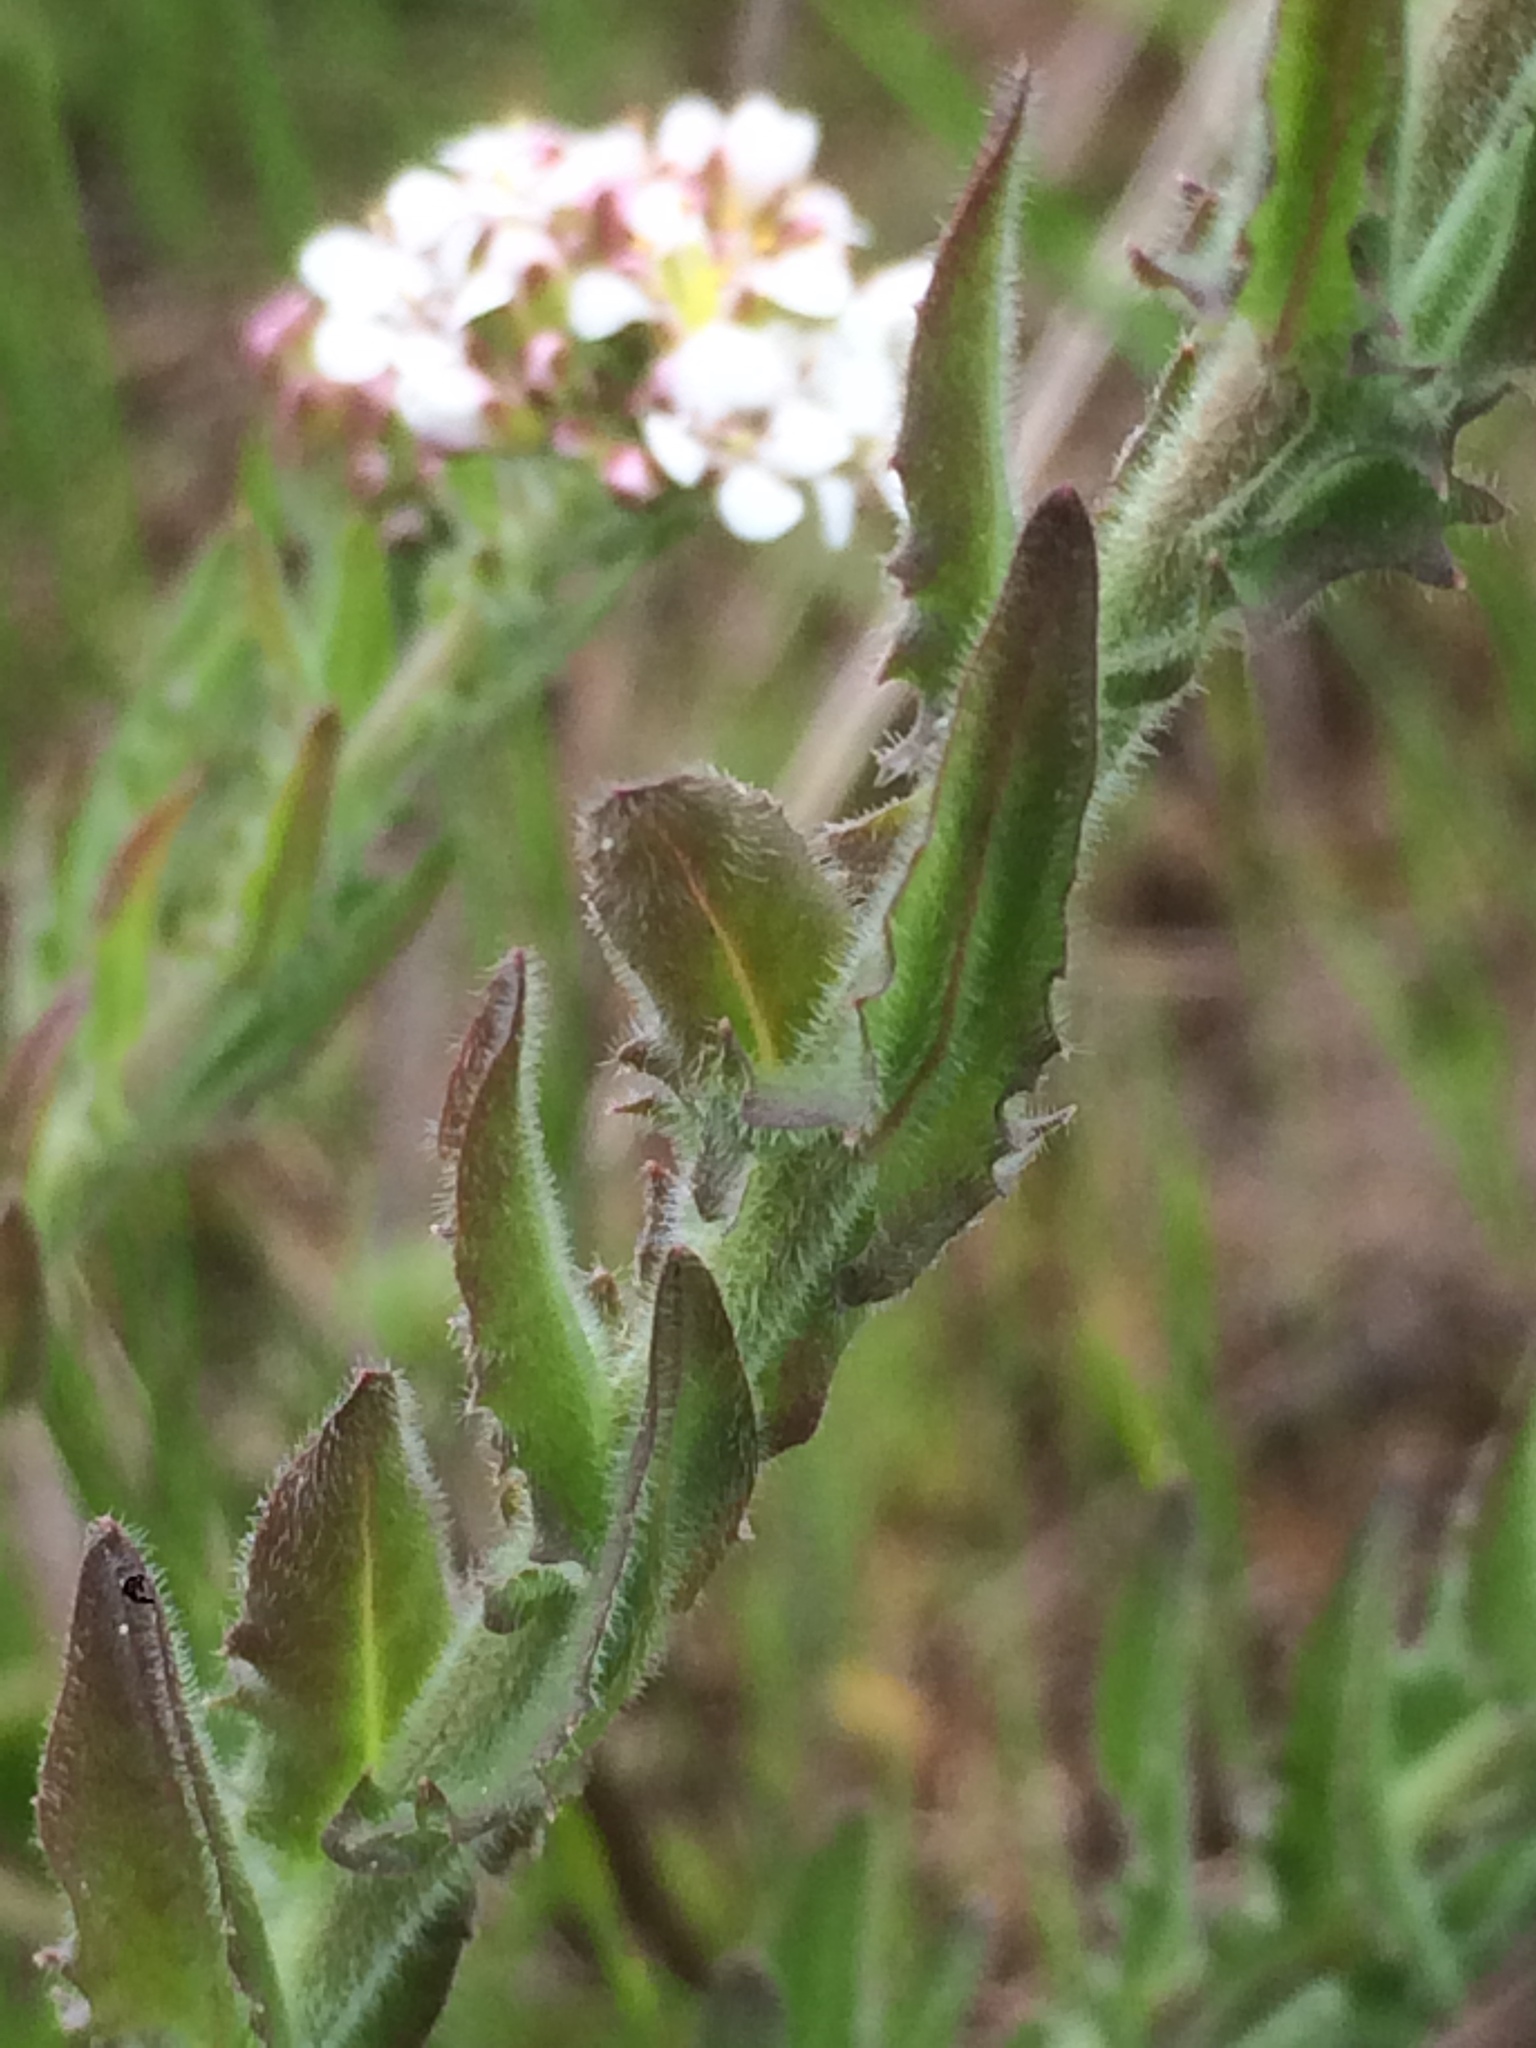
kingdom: Plantae
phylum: Tracheophyta
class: Magnoliopsida
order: Brassicales
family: Brassicaceae
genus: Lepidium
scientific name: Lepidium heterophyllum
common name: Smith's pepperwort
